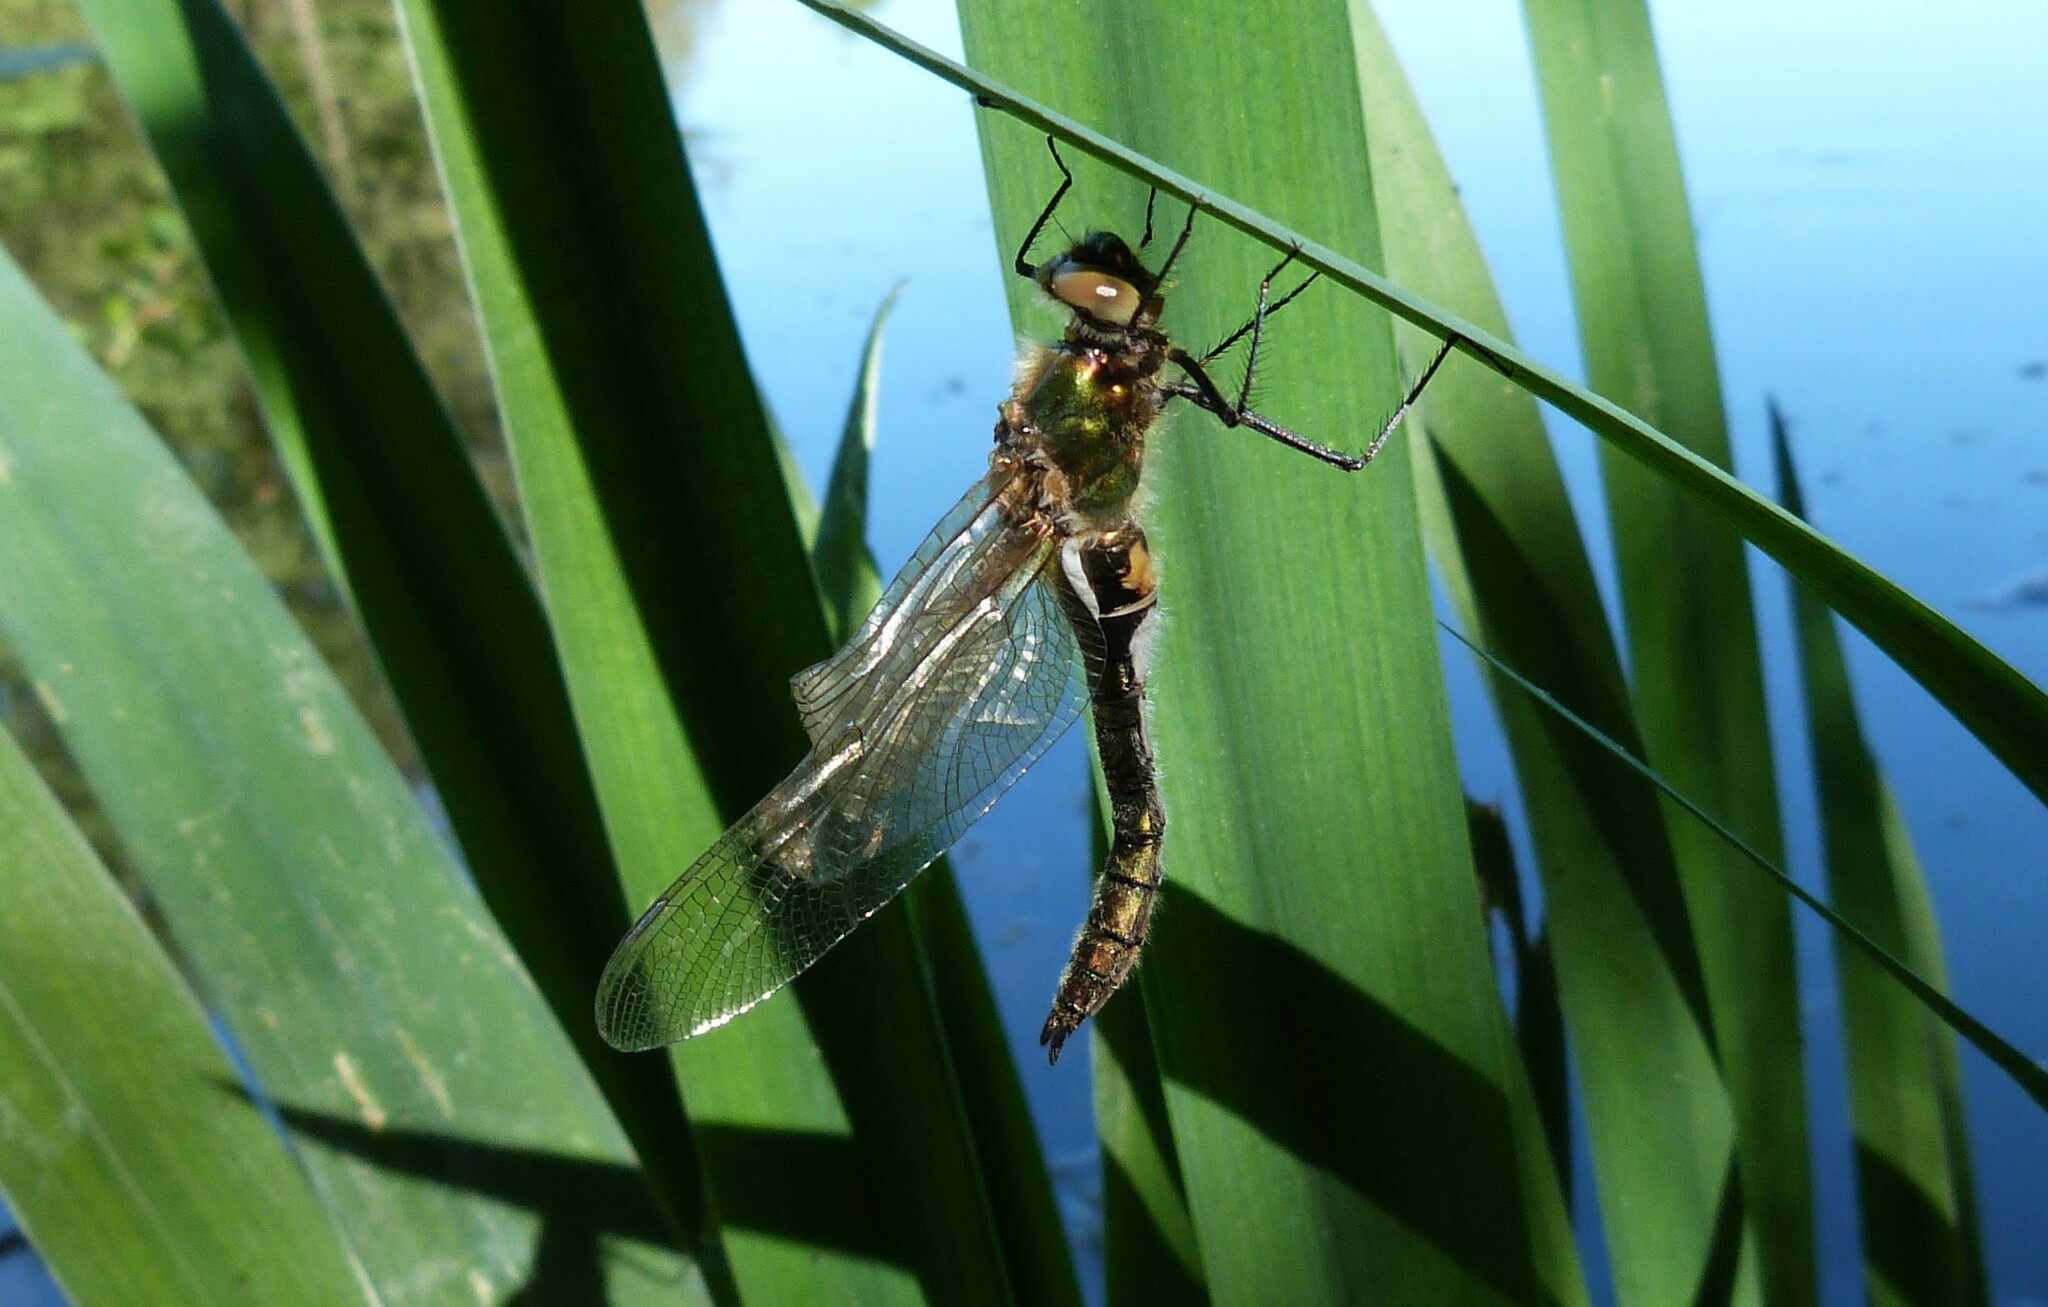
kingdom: Animalia
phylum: Arthropoda
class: Insecta
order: Odonata
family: Corduliidae
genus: Cordulia
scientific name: Cordulia aenea
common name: Downy emerald
